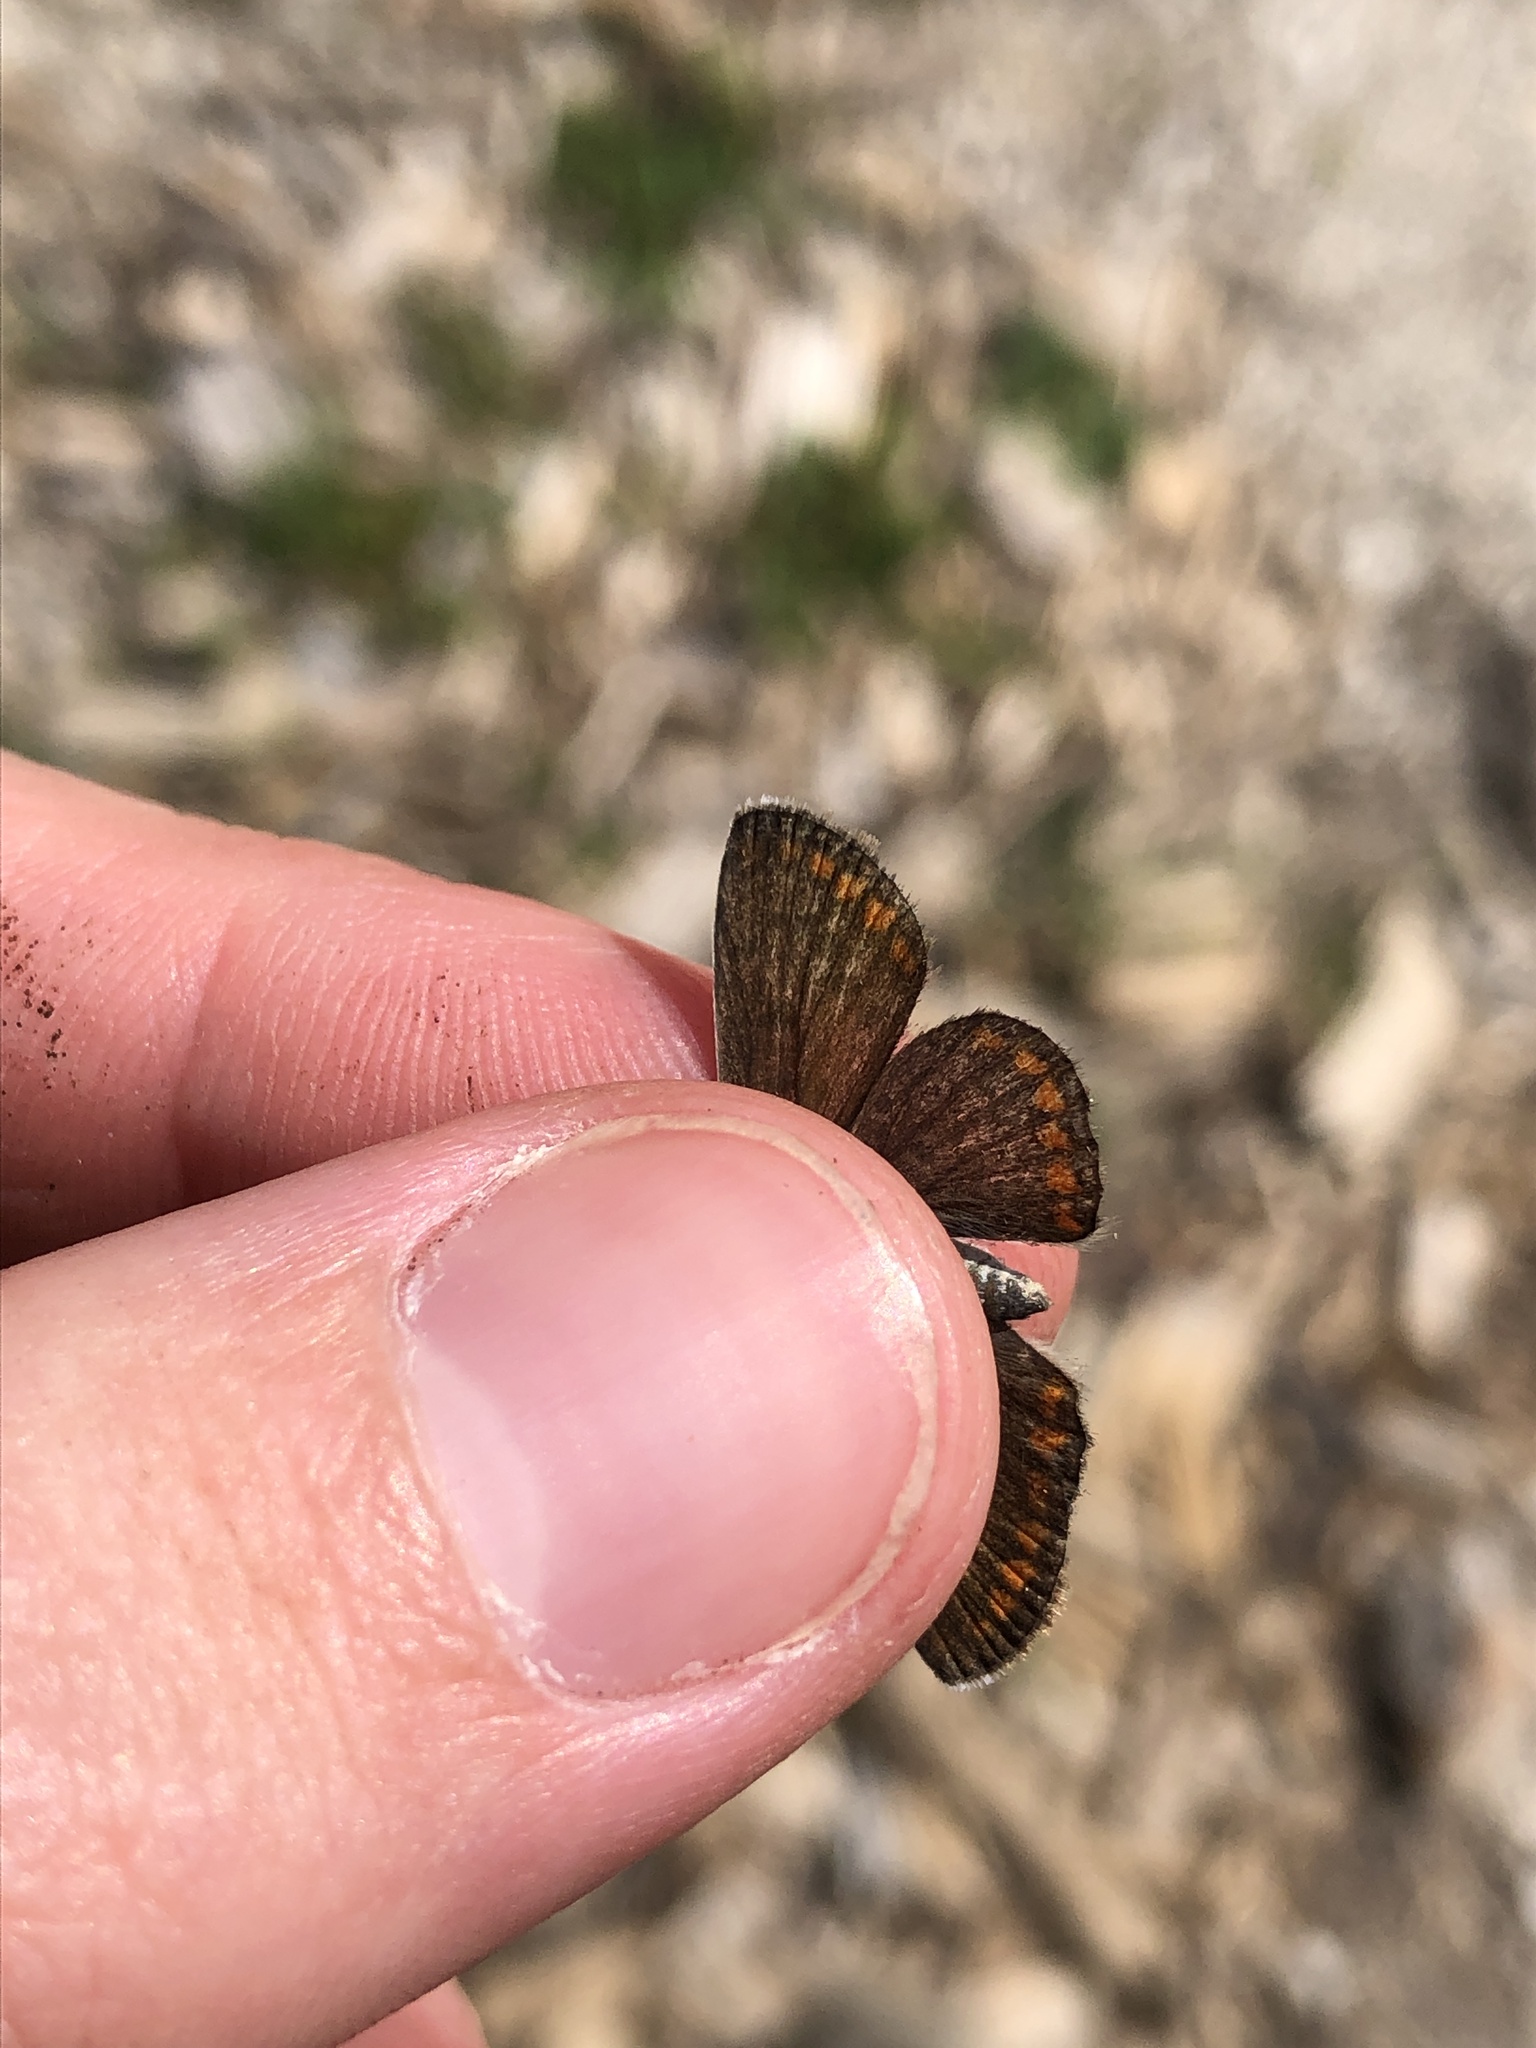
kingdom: Animalia
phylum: Arthropoda
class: Insecta
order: Lepidoptera
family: Lycaenidae
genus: Polyommatus
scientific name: Polyommatus icarus
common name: Common blue
